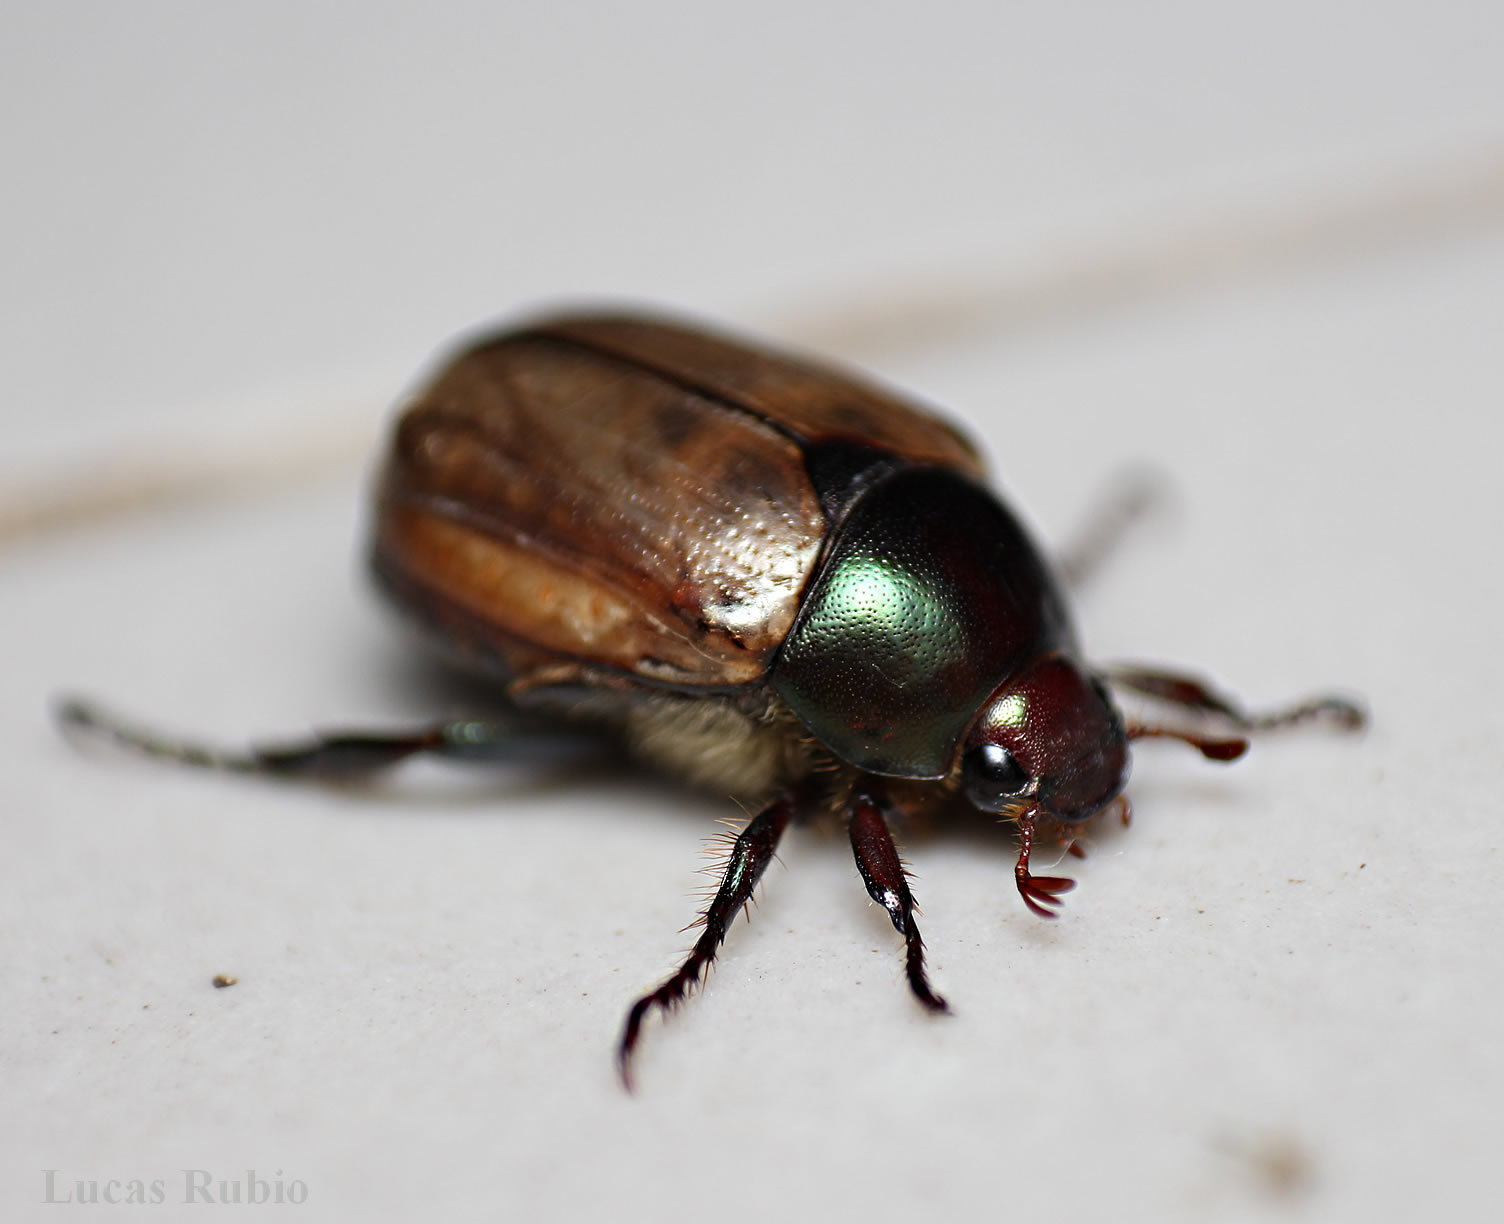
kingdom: Animalia
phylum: Arthropoda
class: Insecta
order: Coleoptera
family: Scarabaeidae
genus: Paranomala
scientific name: Paranomala testaceipennis
